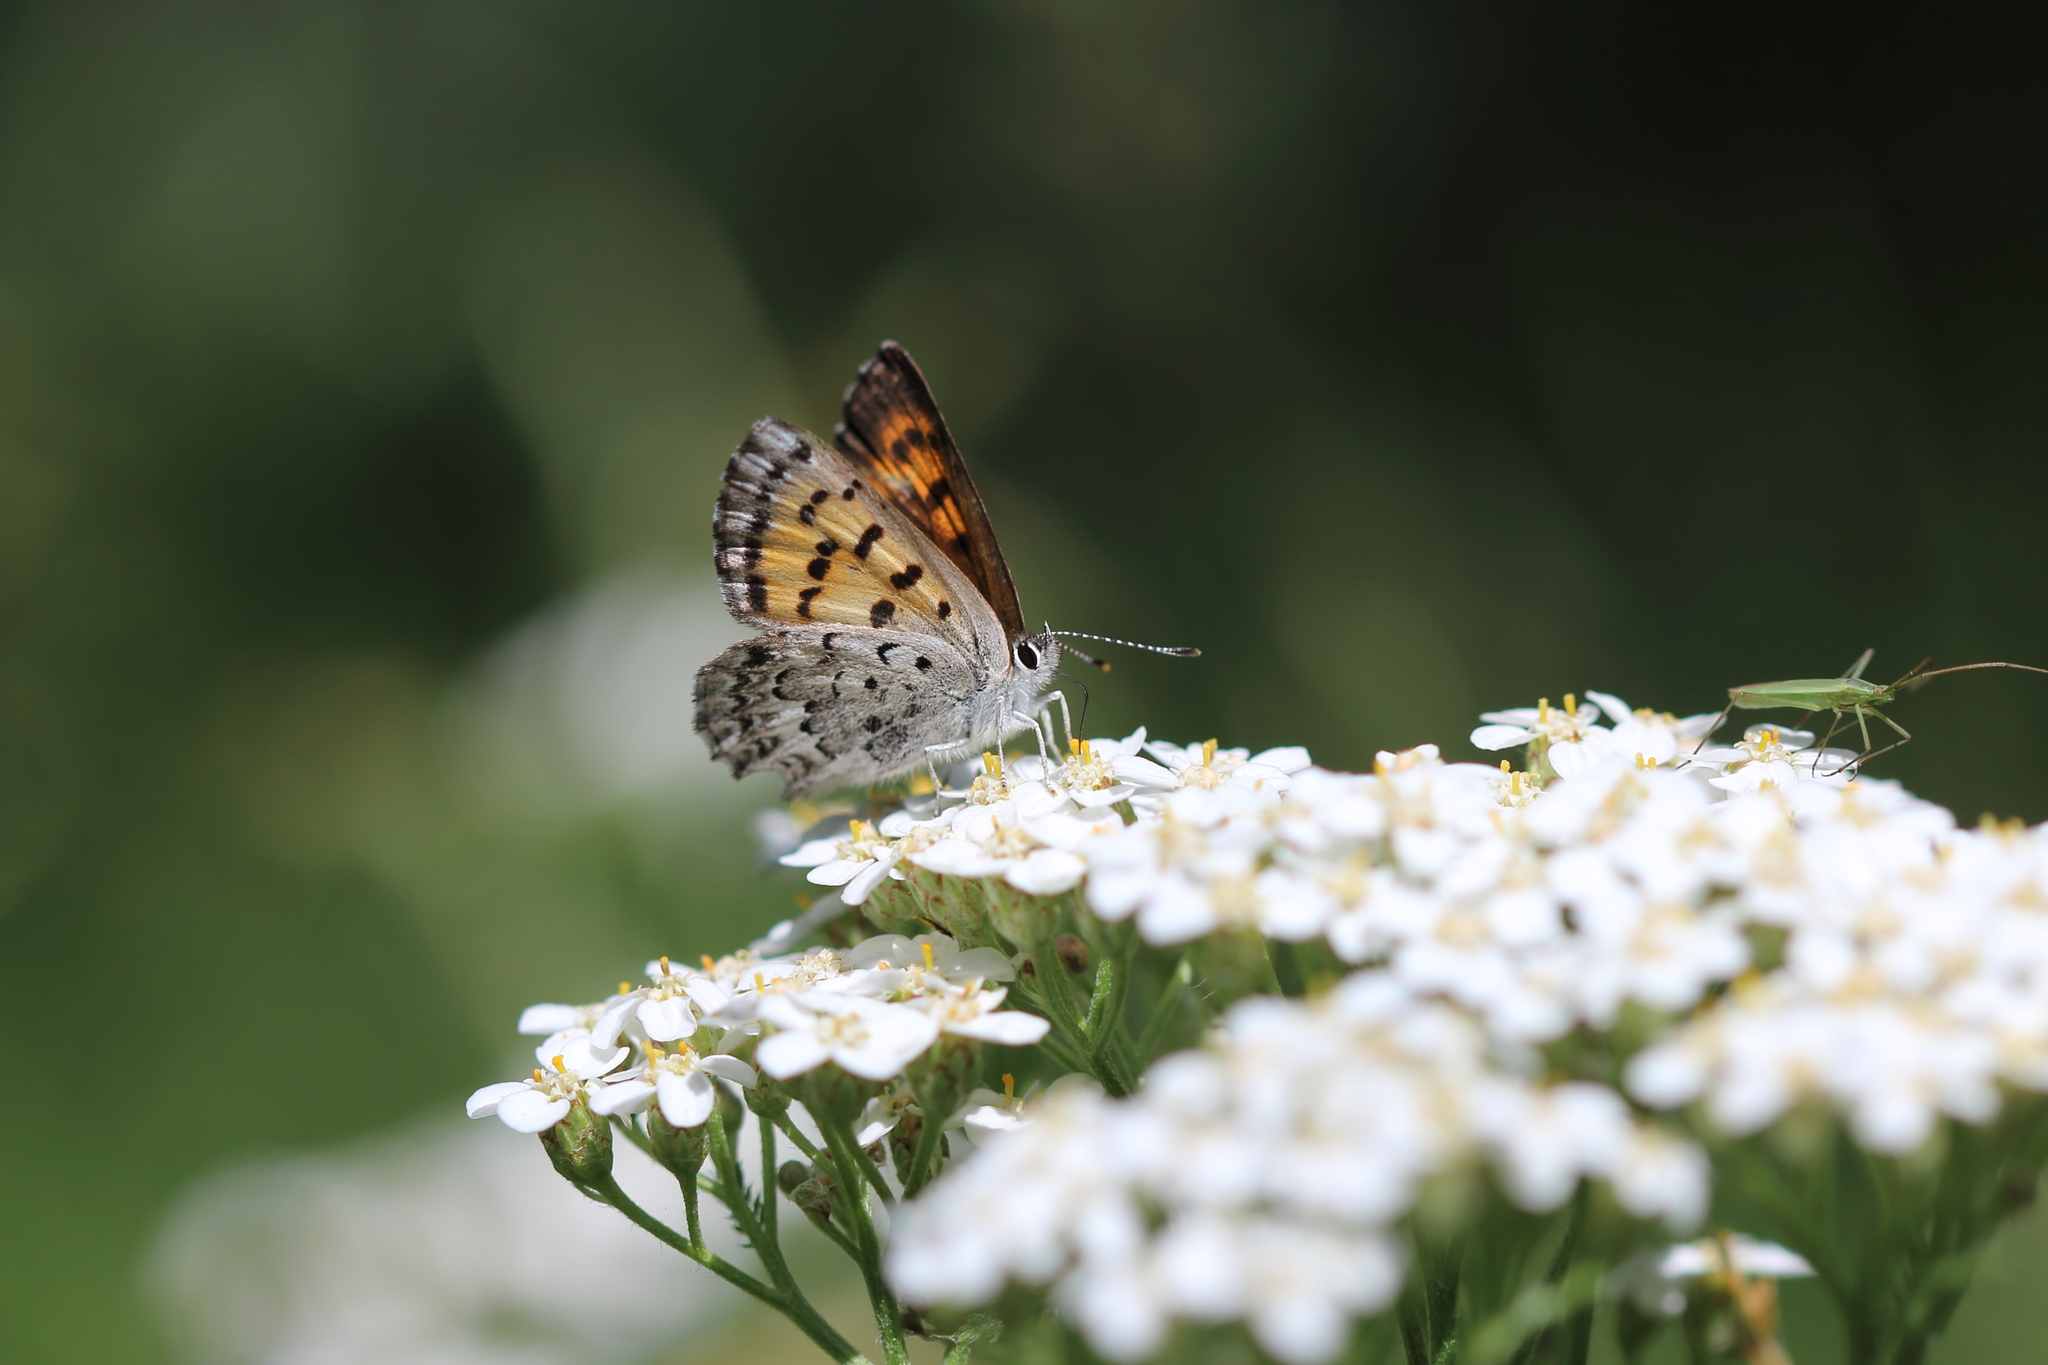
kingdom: Animalia
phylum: Arthropoda
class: Insecta
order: Lepidoptera
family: Lycaenidae
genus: Tharsalea
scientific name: Tharsalea mariposa
